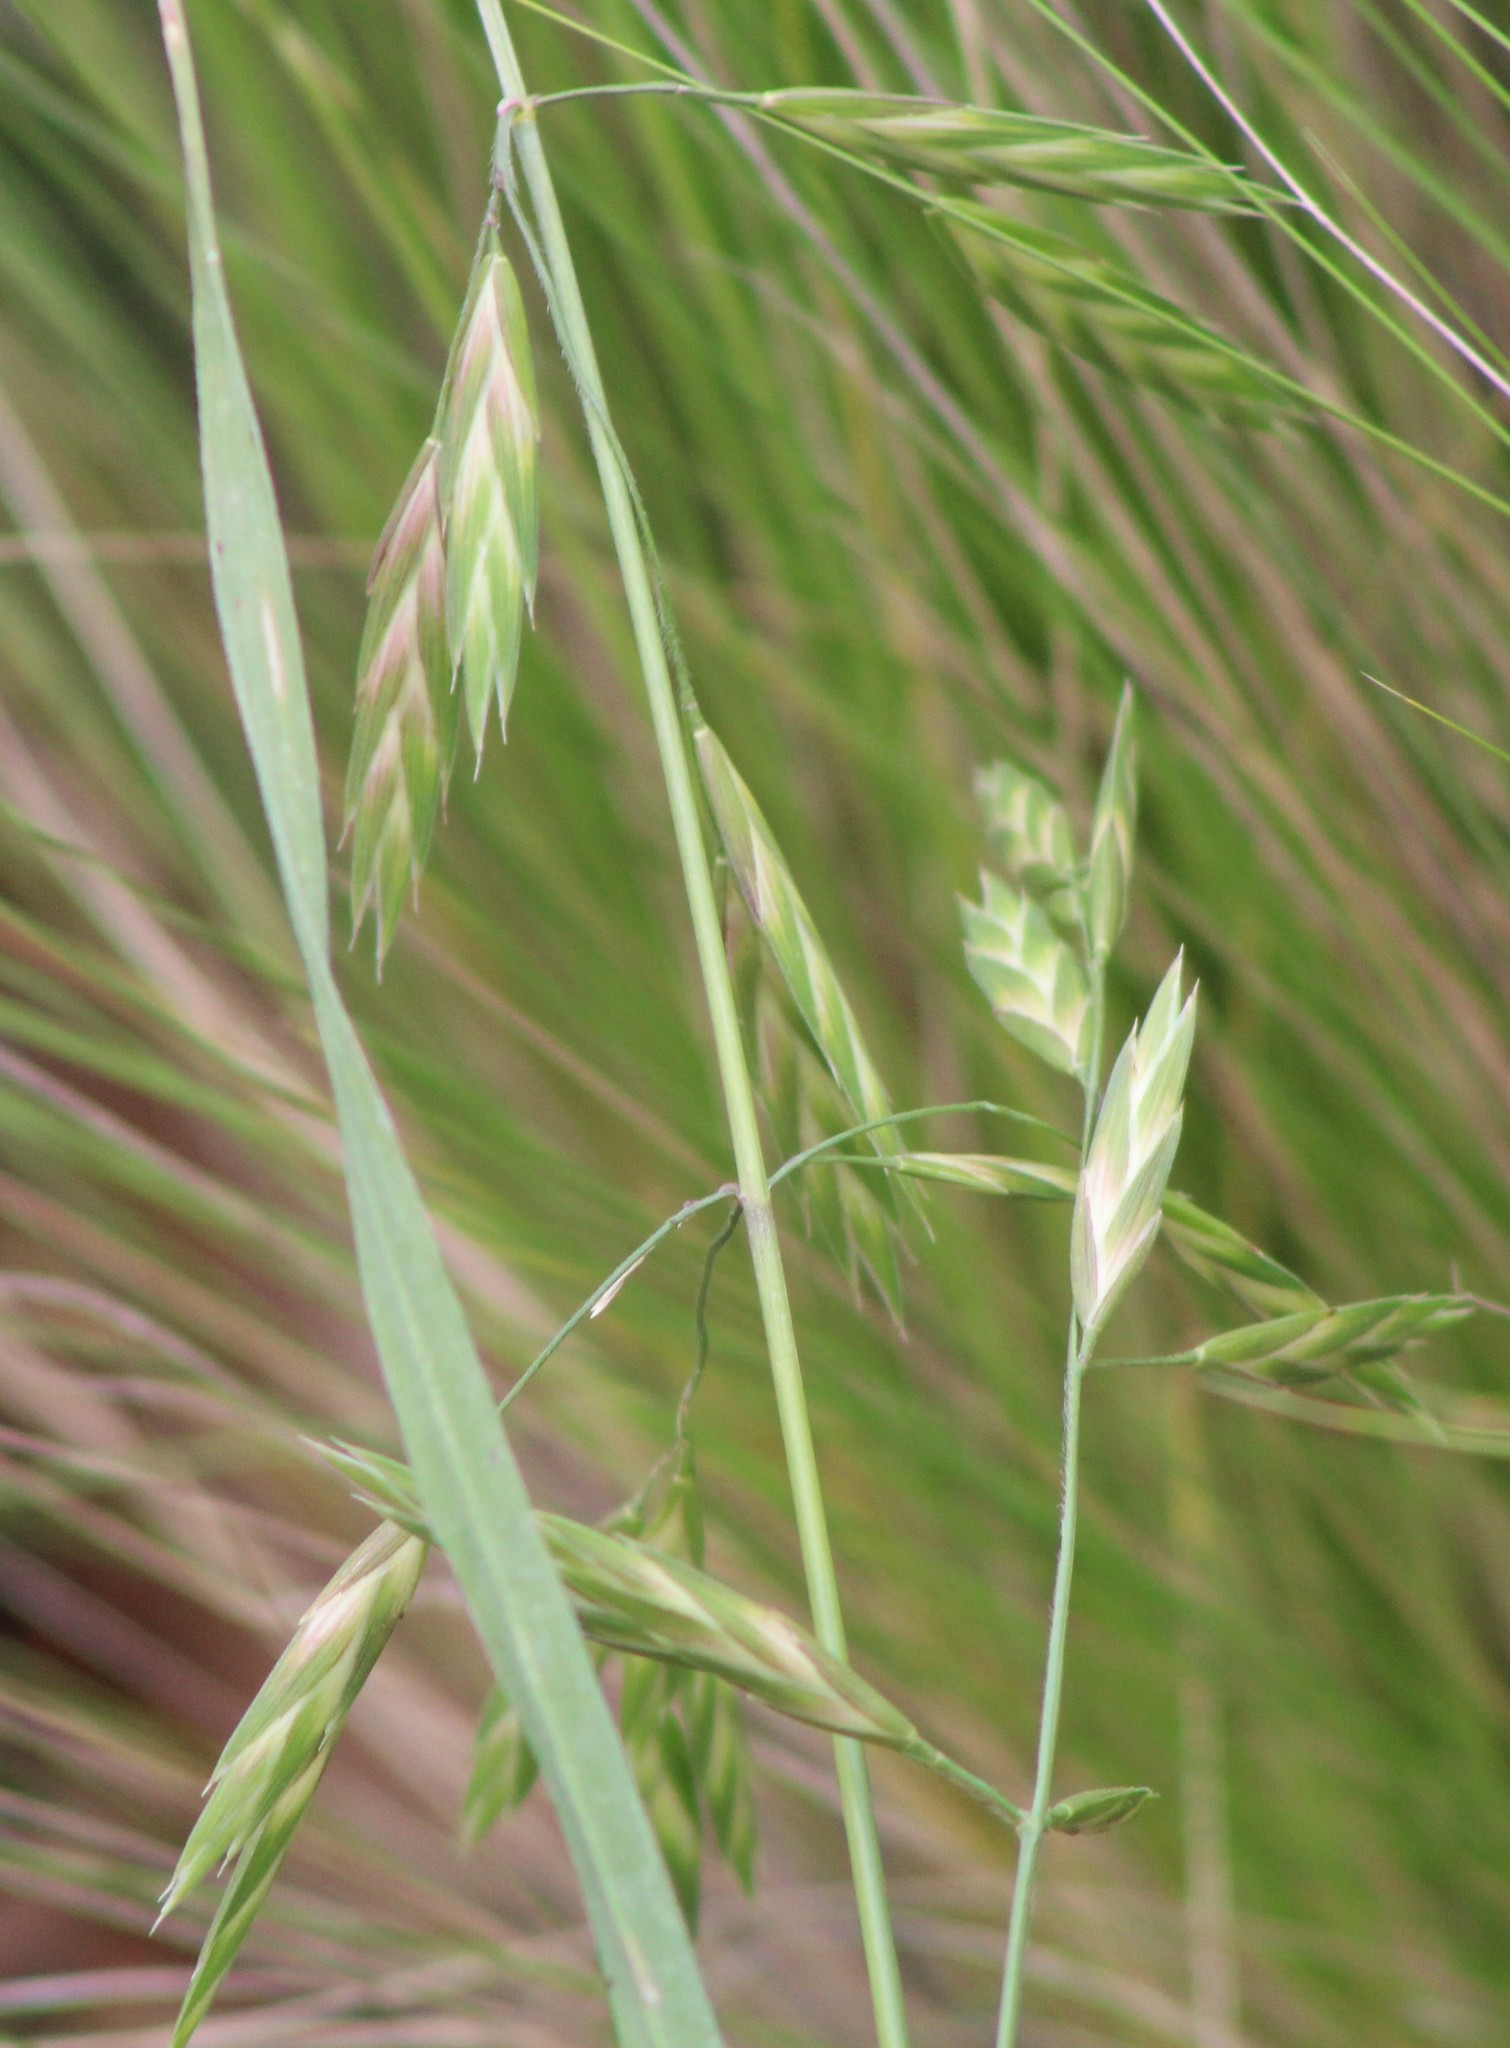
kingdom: Plantae
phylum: Tracheophyta
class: Liliopsida
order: Poales
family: Poaceae
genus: Bromus
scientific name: Bromus catharticus
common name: Rescuegrass
